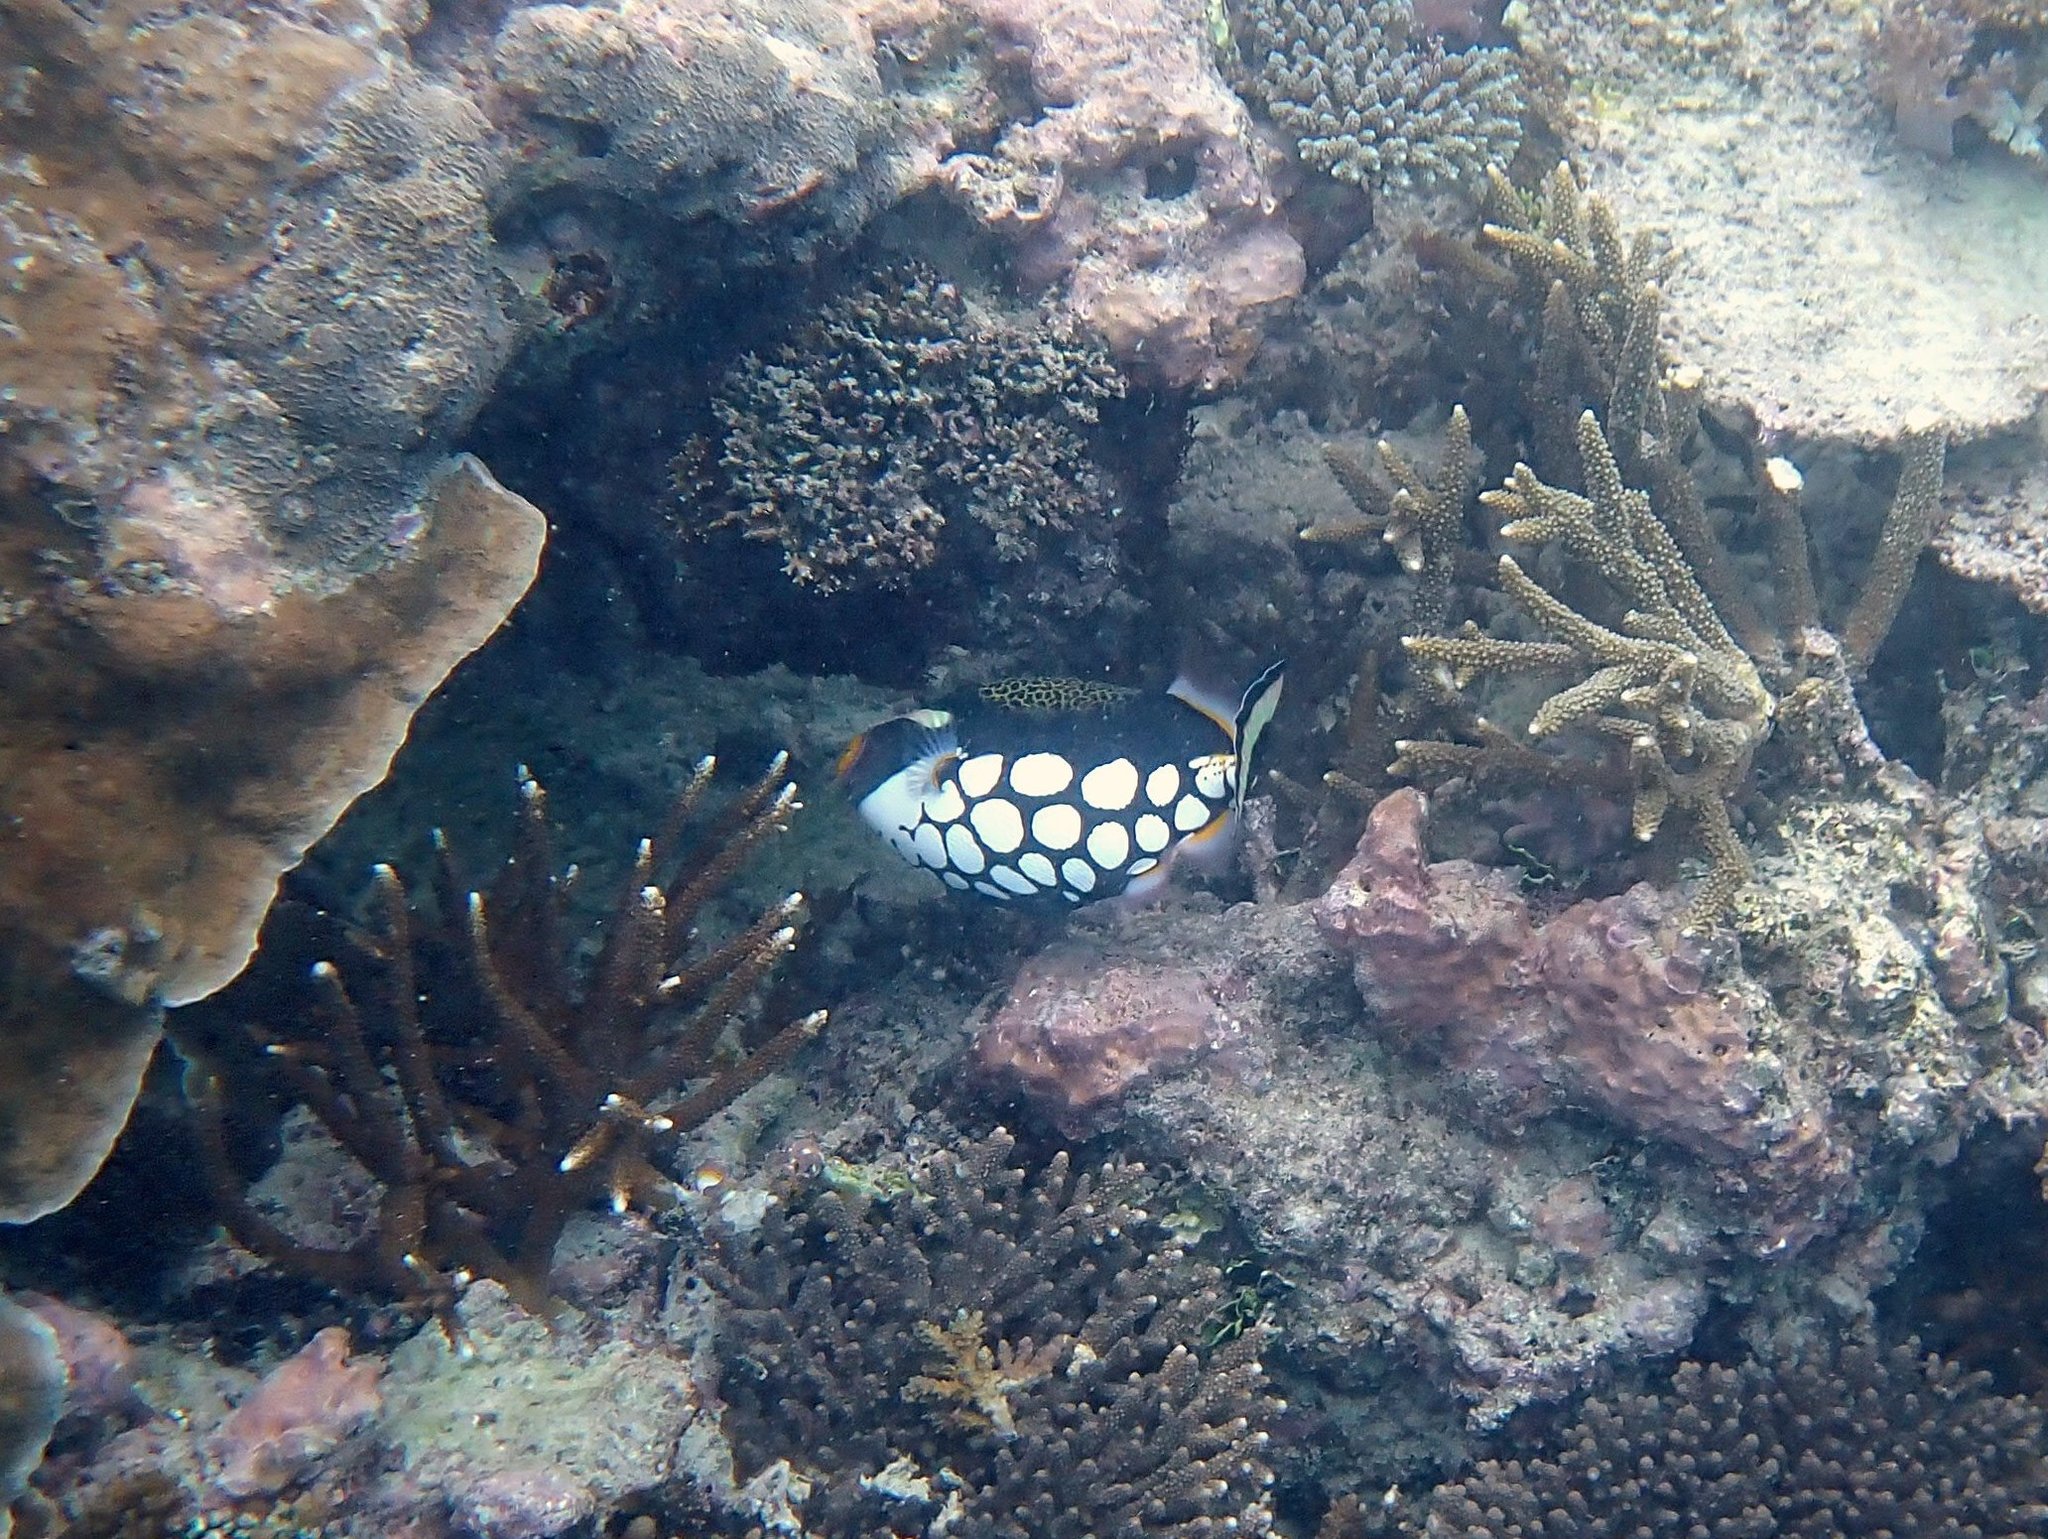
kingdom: Animalia
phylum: Chordata
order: Tetraodontiformes
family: Balistidae
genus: Balistoides
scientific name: Balistoides conspicillum
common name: Clown triggerfish
